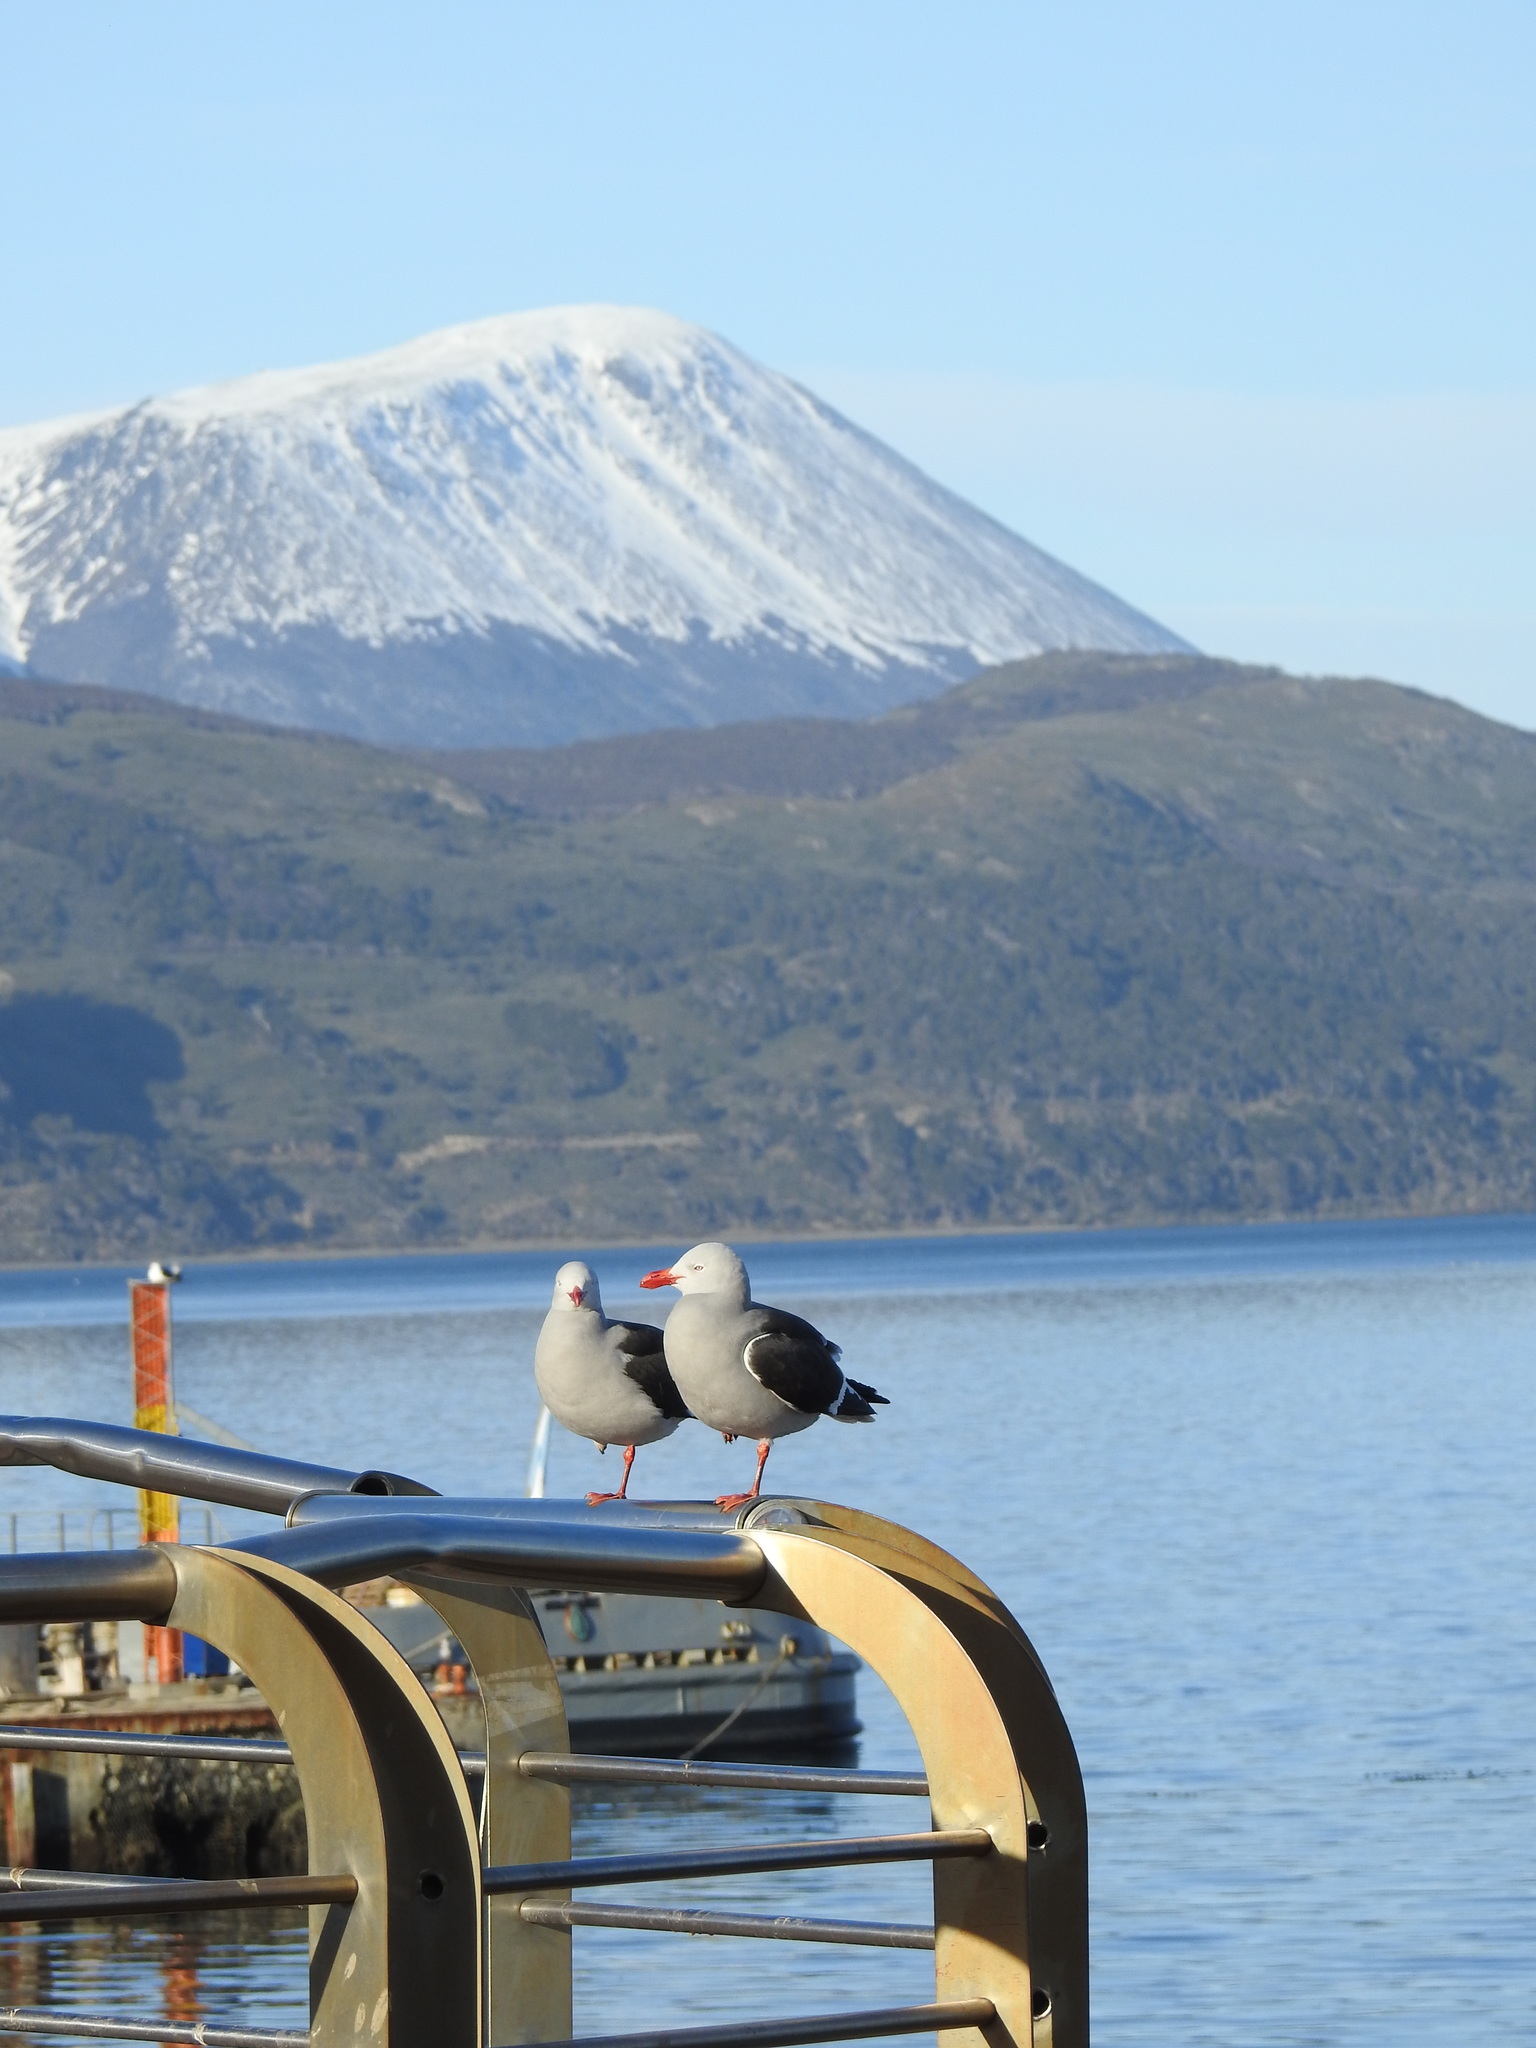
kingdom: Animalia
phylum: Chordata
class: Aves
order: Charadriiformes
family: Laridae
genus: Leucophaeus
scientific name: Leucophaeus scoresbii
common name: Dolphin gull
